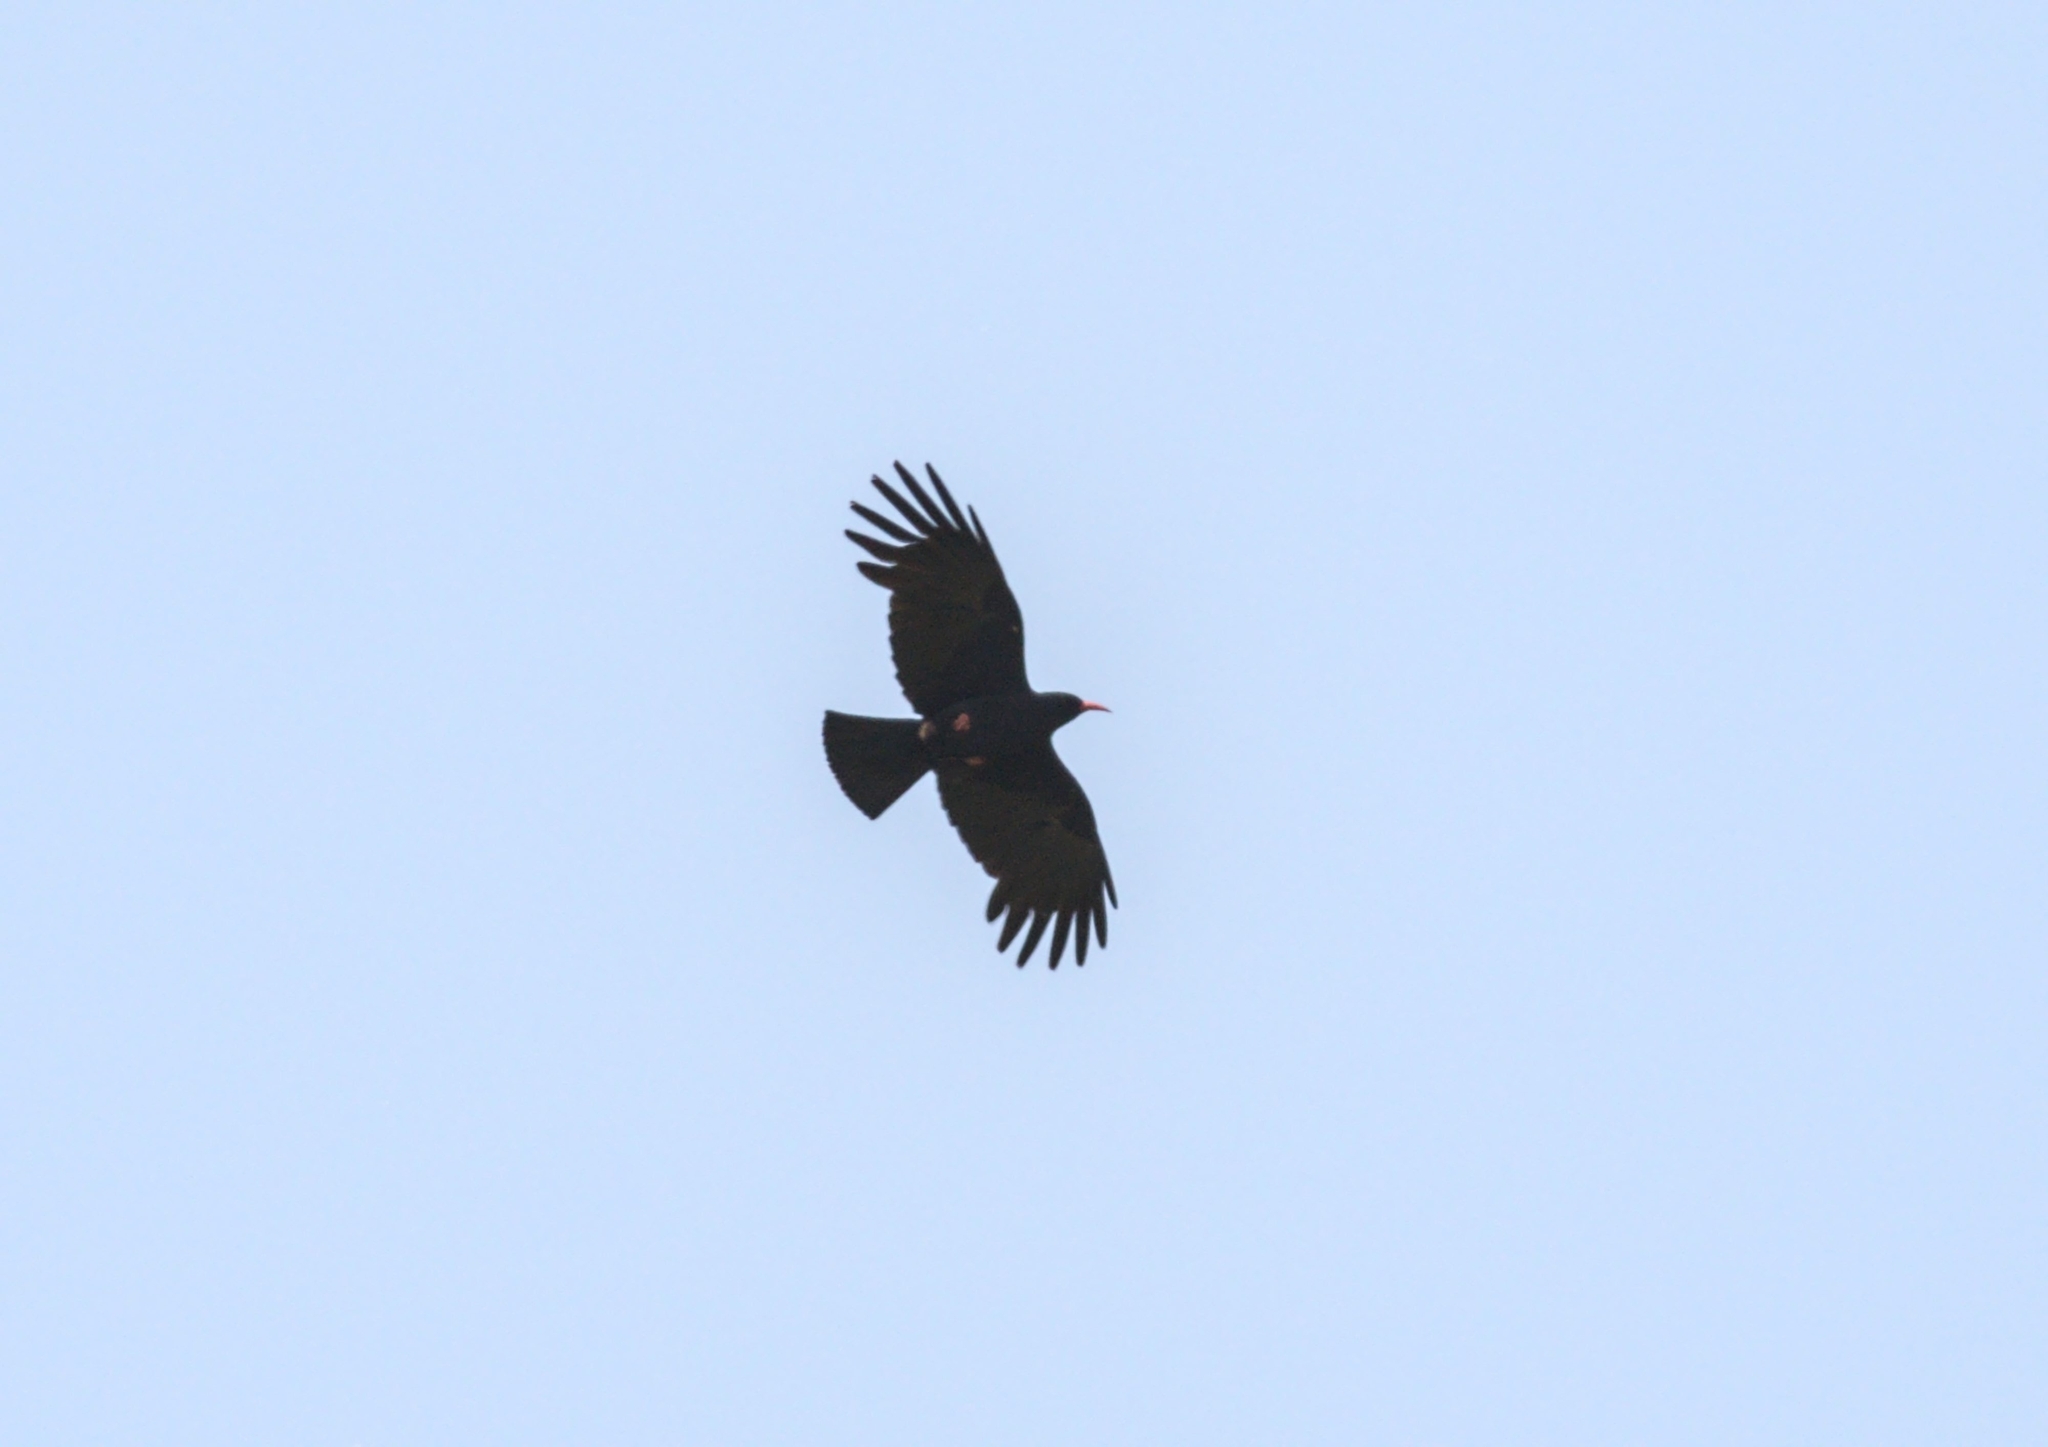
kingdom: Animalia
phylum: Chordata
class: Aves
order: Passeriformes
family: Corvidae
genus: Pyrrhocorax
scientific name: Pyrrhocorax pyrrhocorax
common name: Red-billed chough
